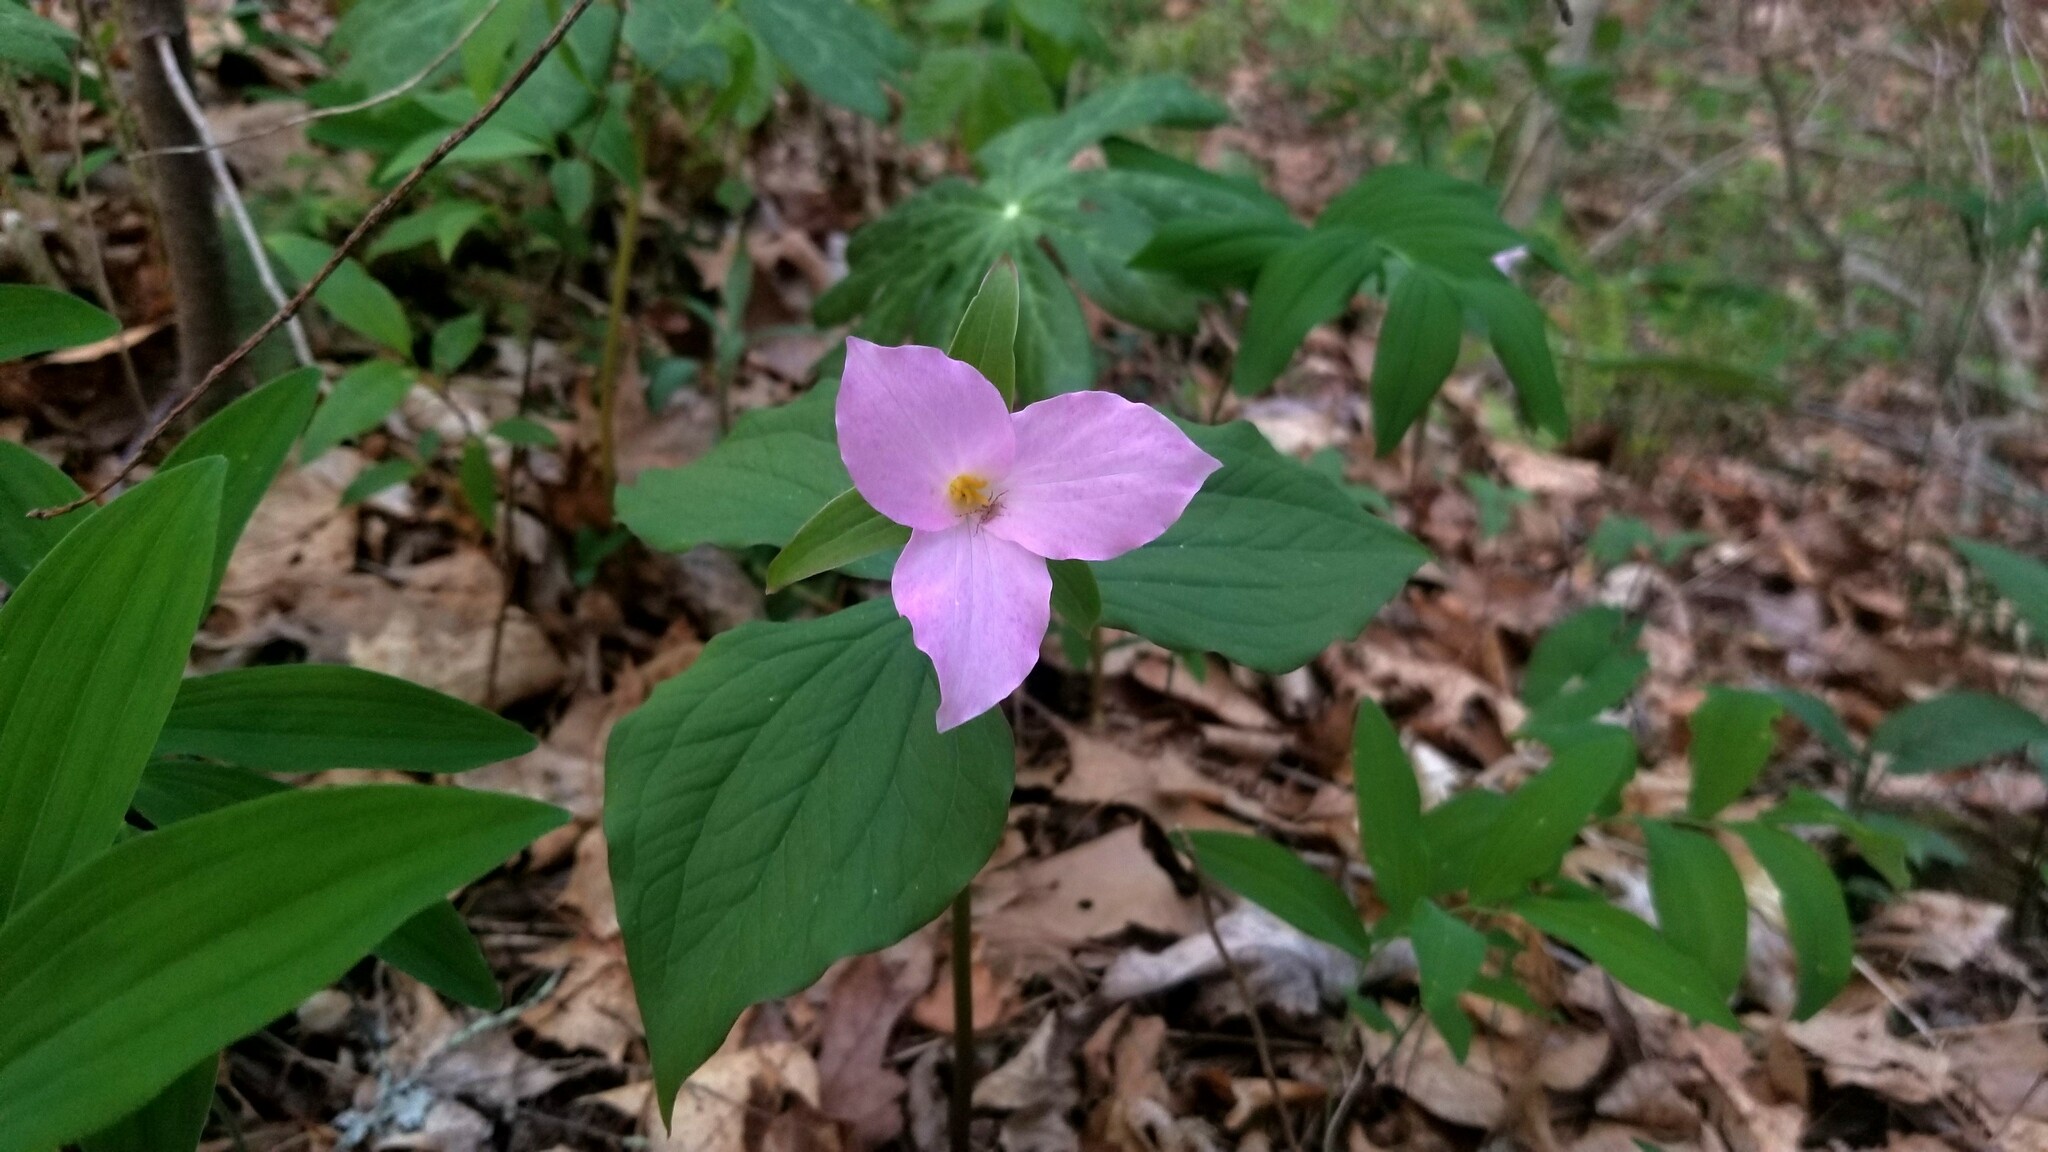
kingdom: Plantae
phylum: Tracheophyta
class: Liliopsida
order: Liliales
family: Melanthiaceae
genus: Trillium
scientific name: Trillium grandiflorum
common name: Great white trillium
